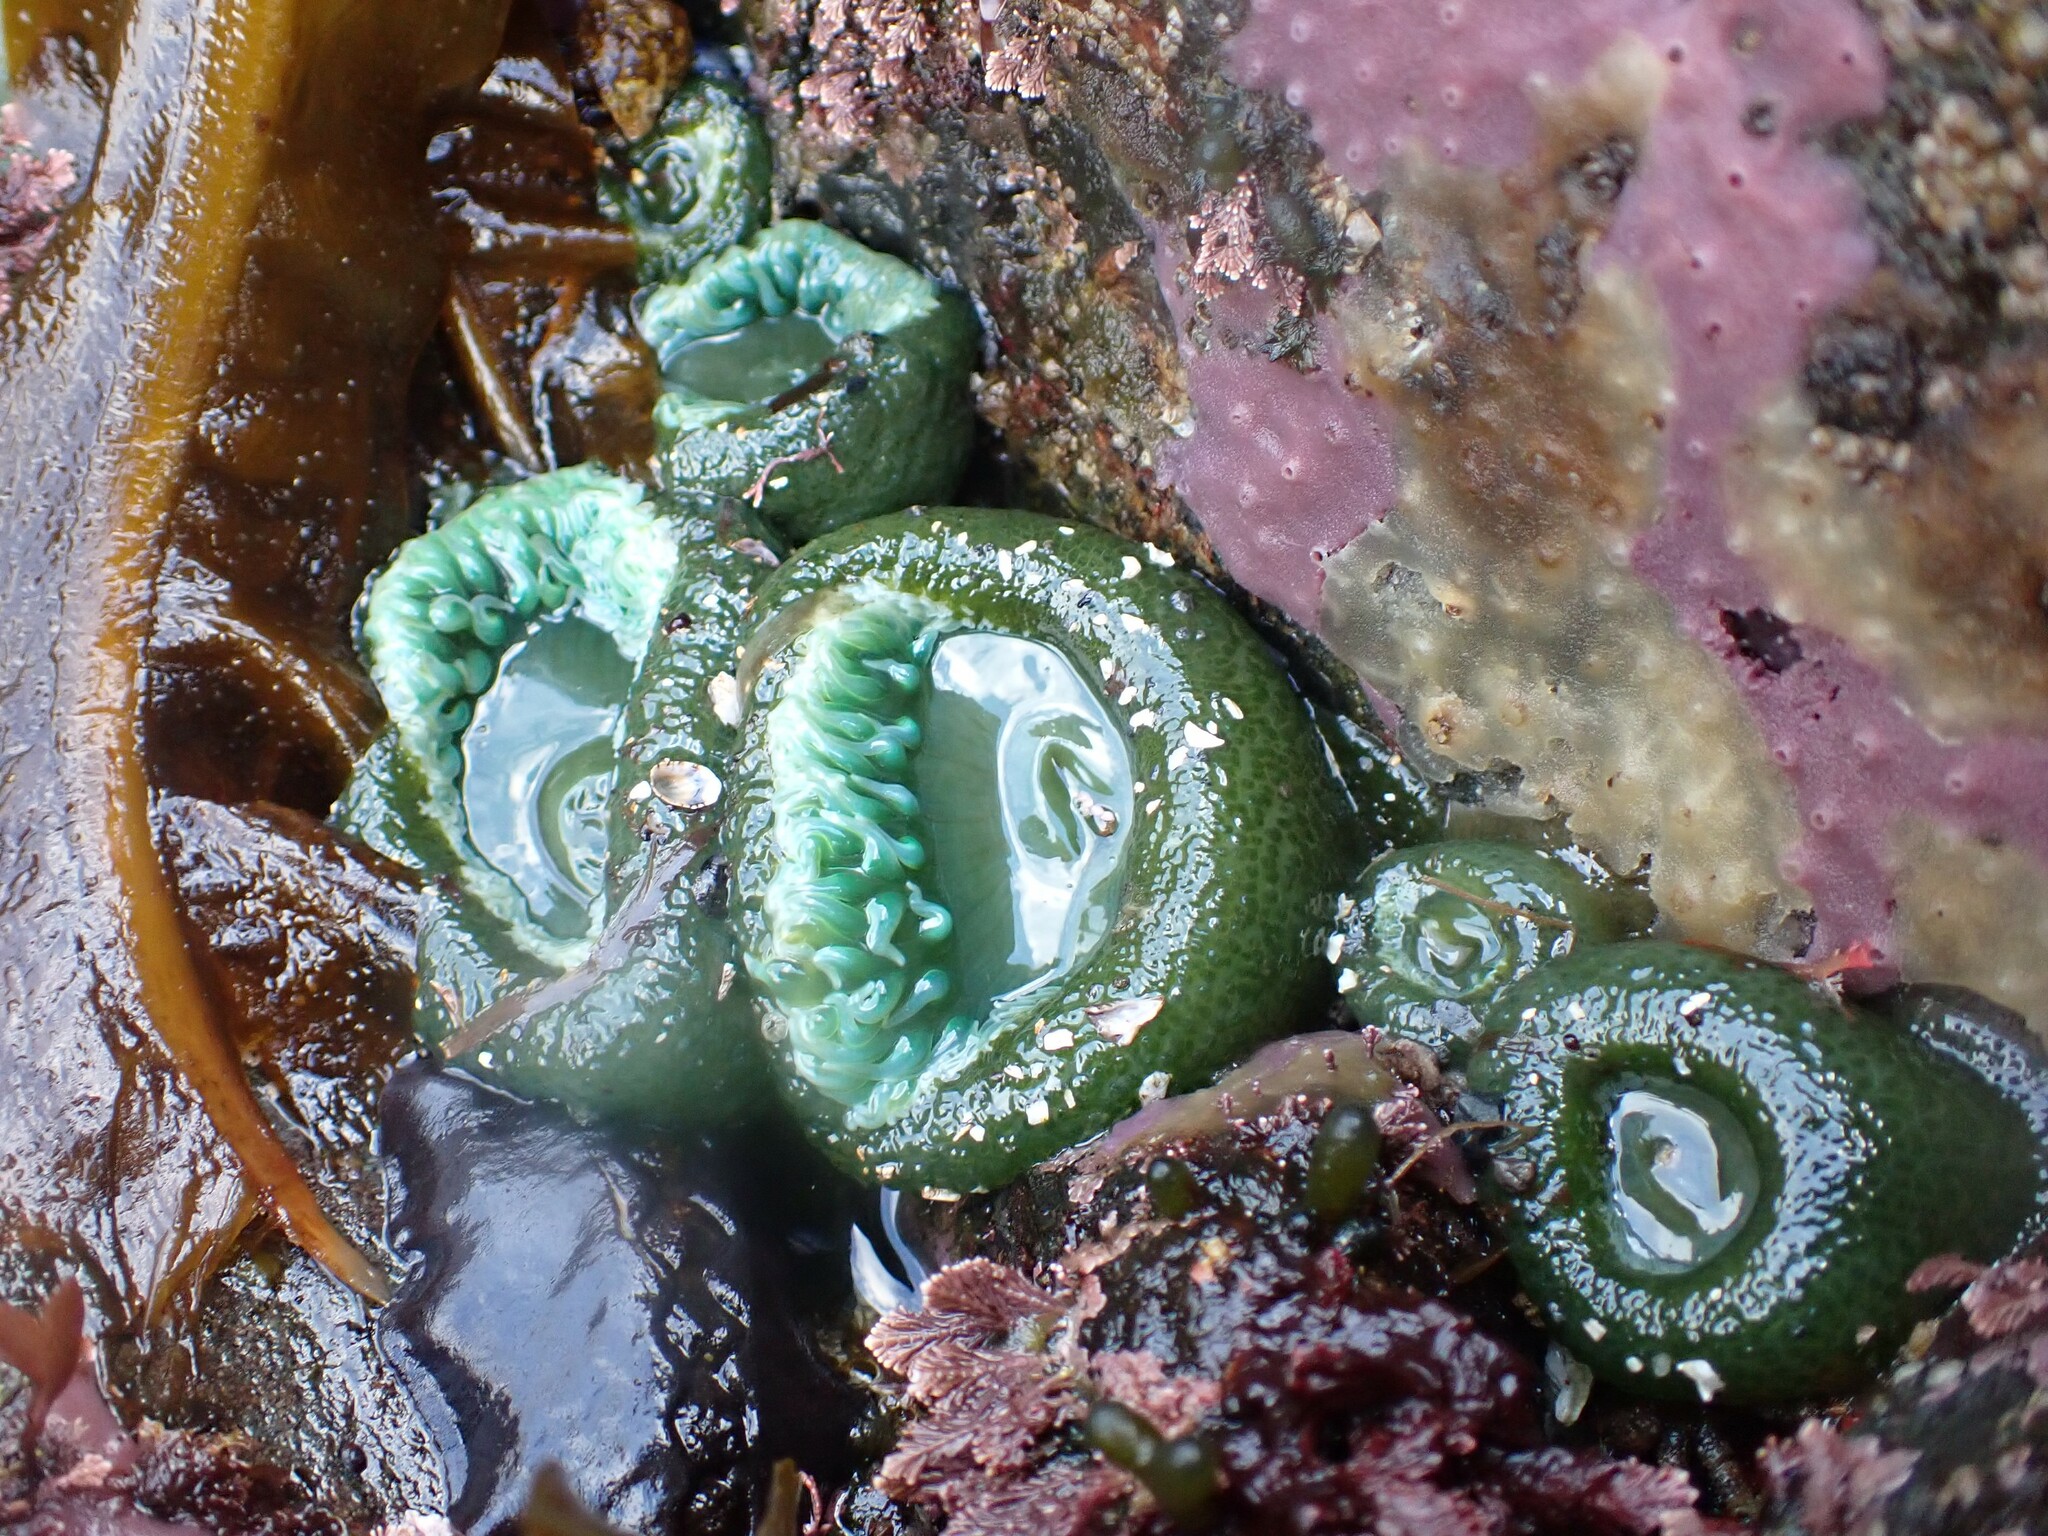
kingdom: Animalia
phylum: Cnidaria
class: Anthozoa
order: Actiniaria
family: Actiniidae
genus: Anthopleura
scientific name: Anthopleura xanthogrammica
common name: Giant green anemone
